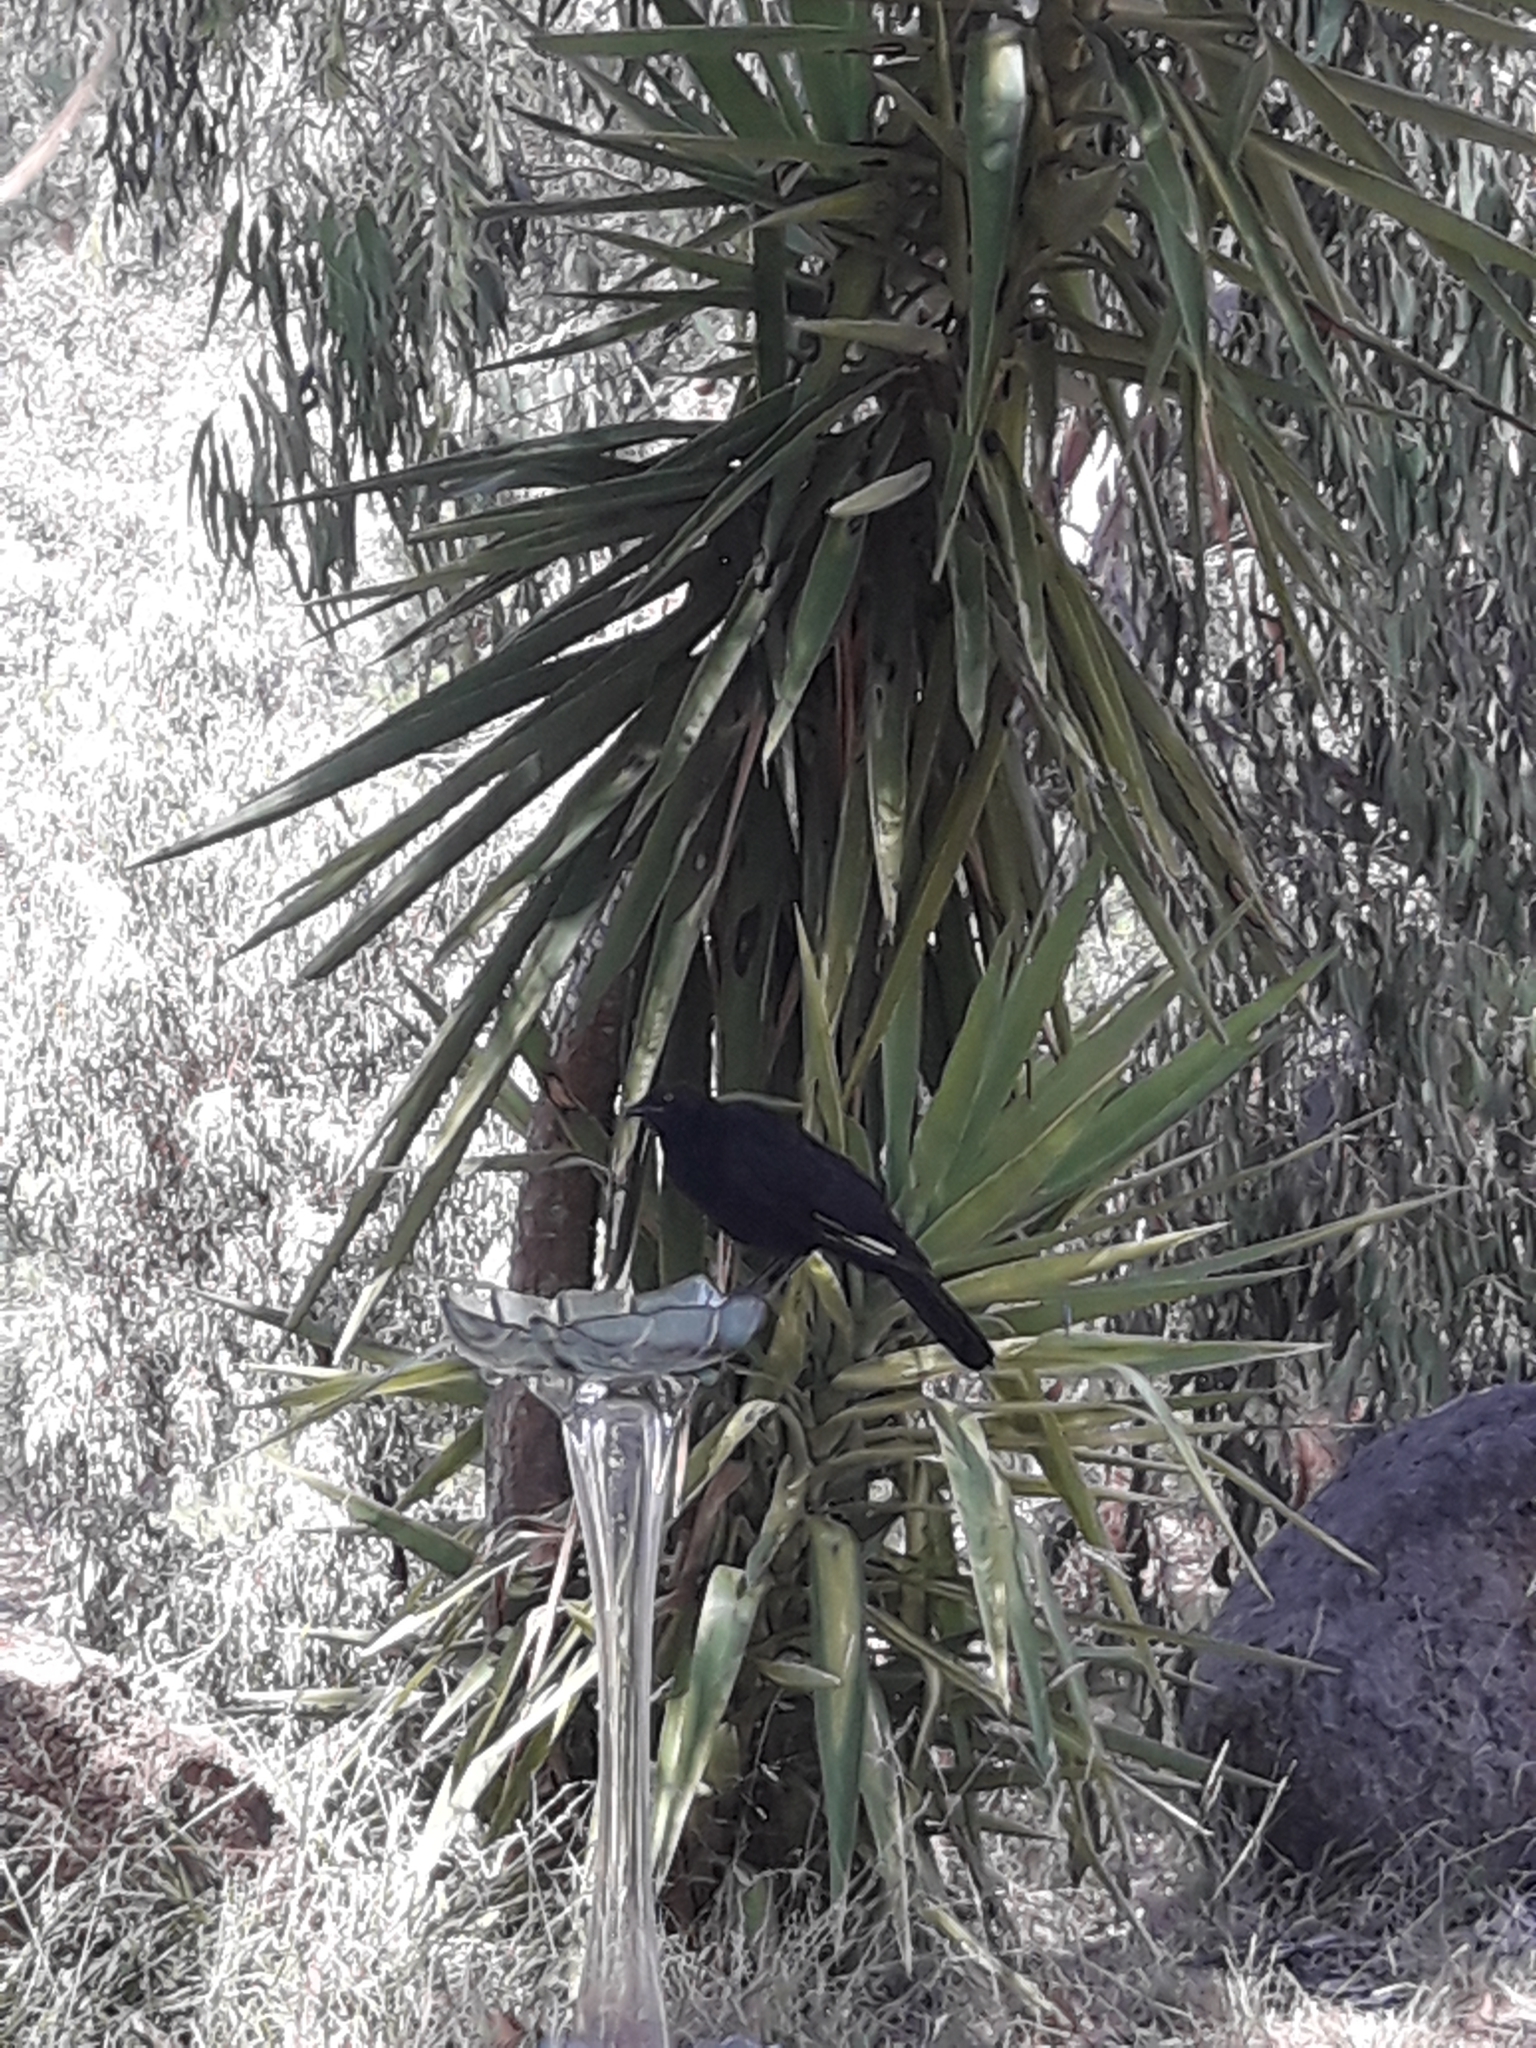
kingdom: Animalia
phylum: Chordata
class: Aves
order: Passeriformes
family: Corcoracidae
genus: Corcorax
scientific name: Corcorax melanoramphos
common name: White-winged chough
